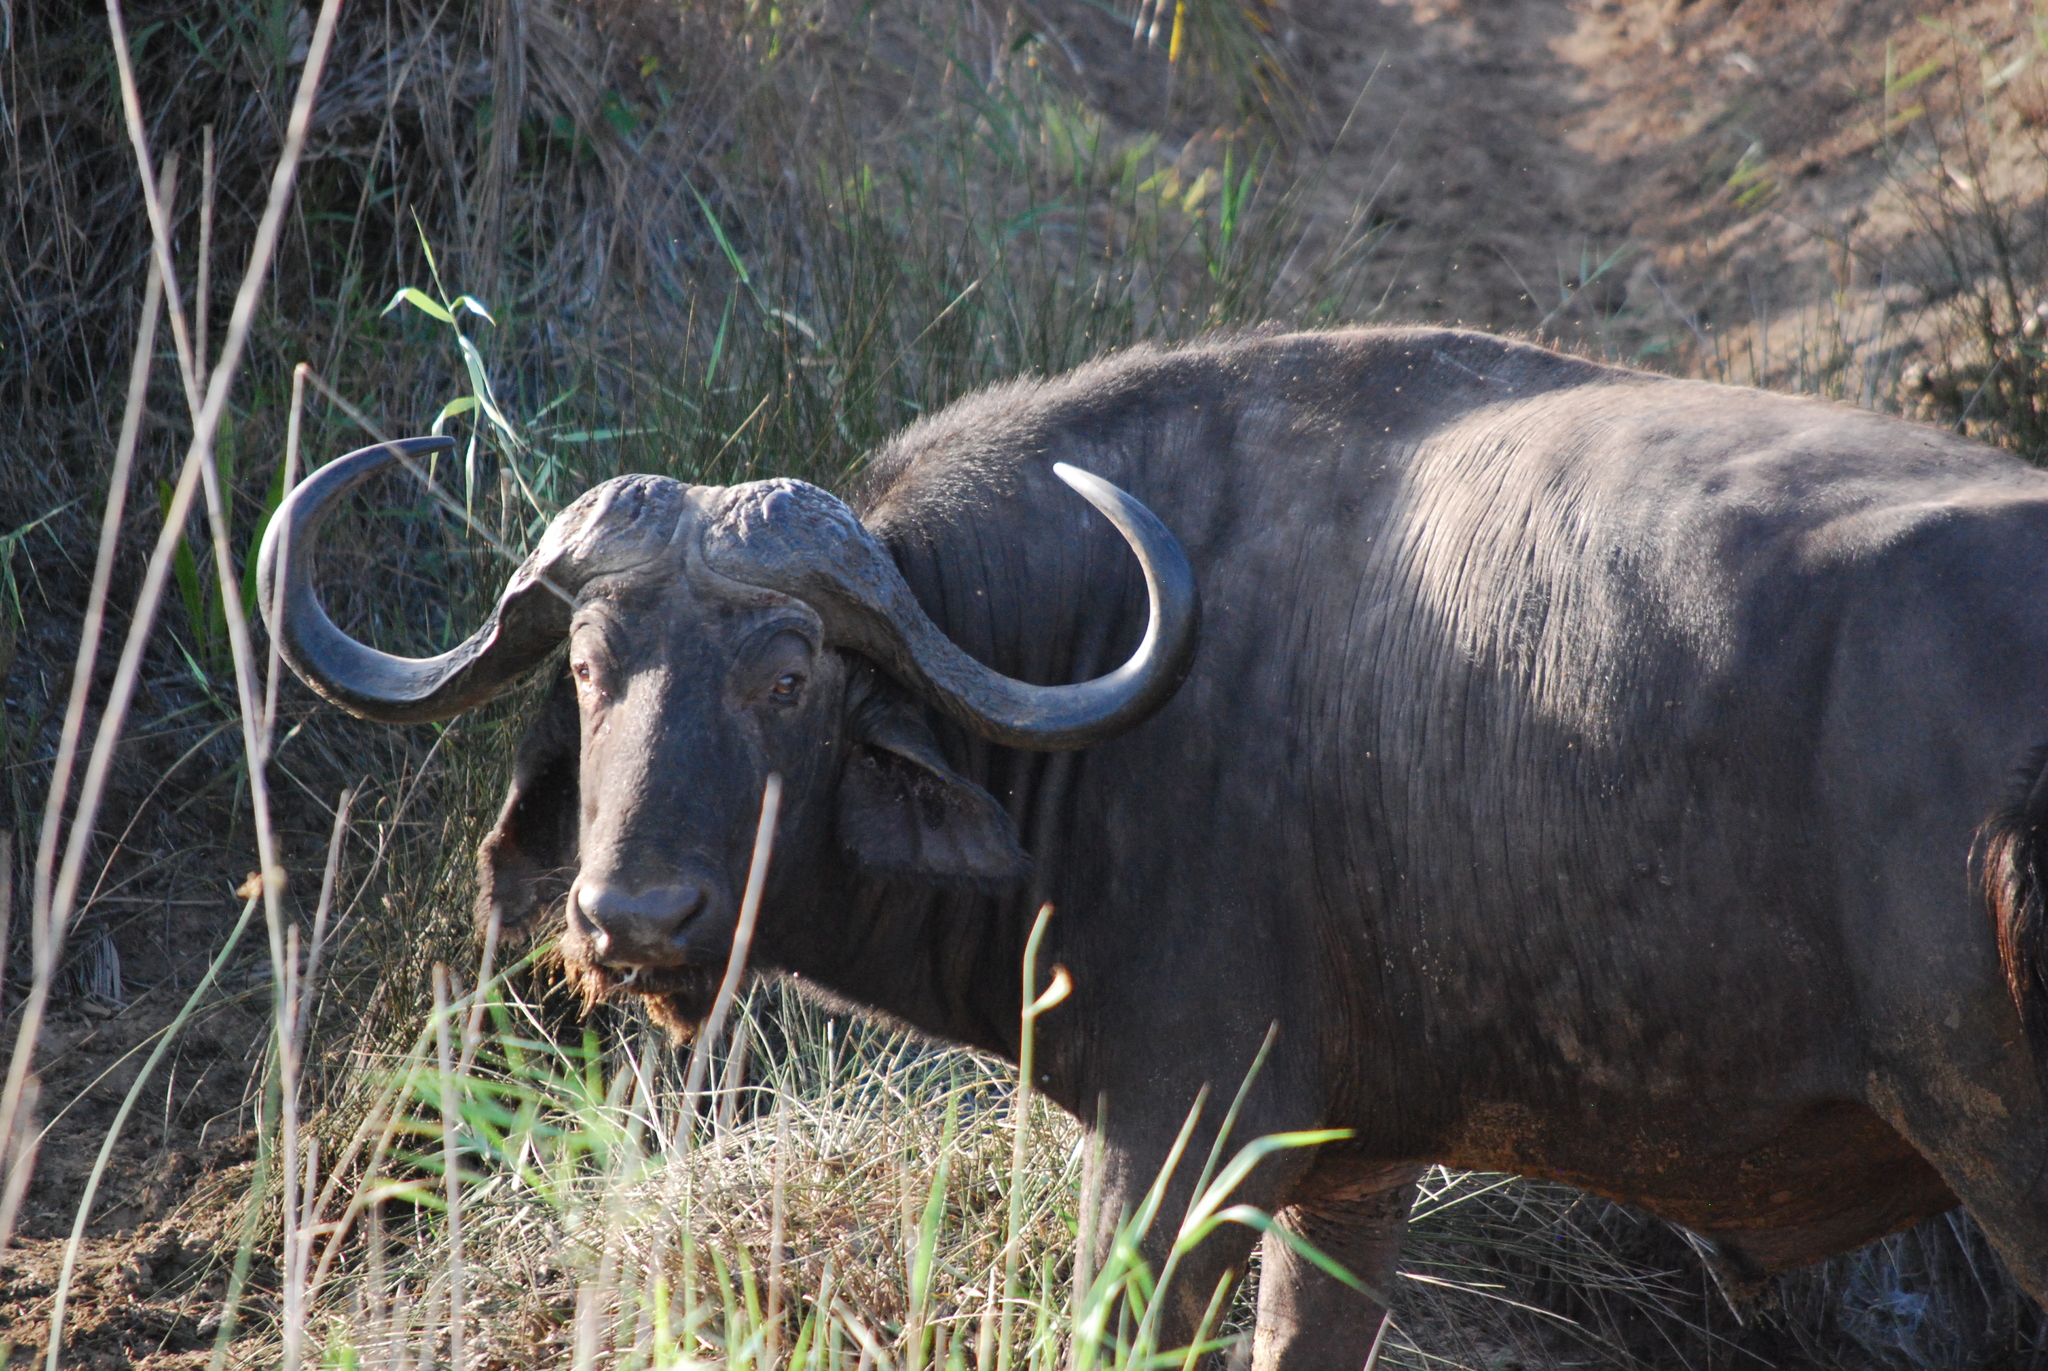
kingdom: Animalia
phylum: Chordata
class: Mammalia
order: Artiodactyla
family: Bovidae
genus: Syncerus
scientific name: Syncerus caffer
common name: African buffalo
